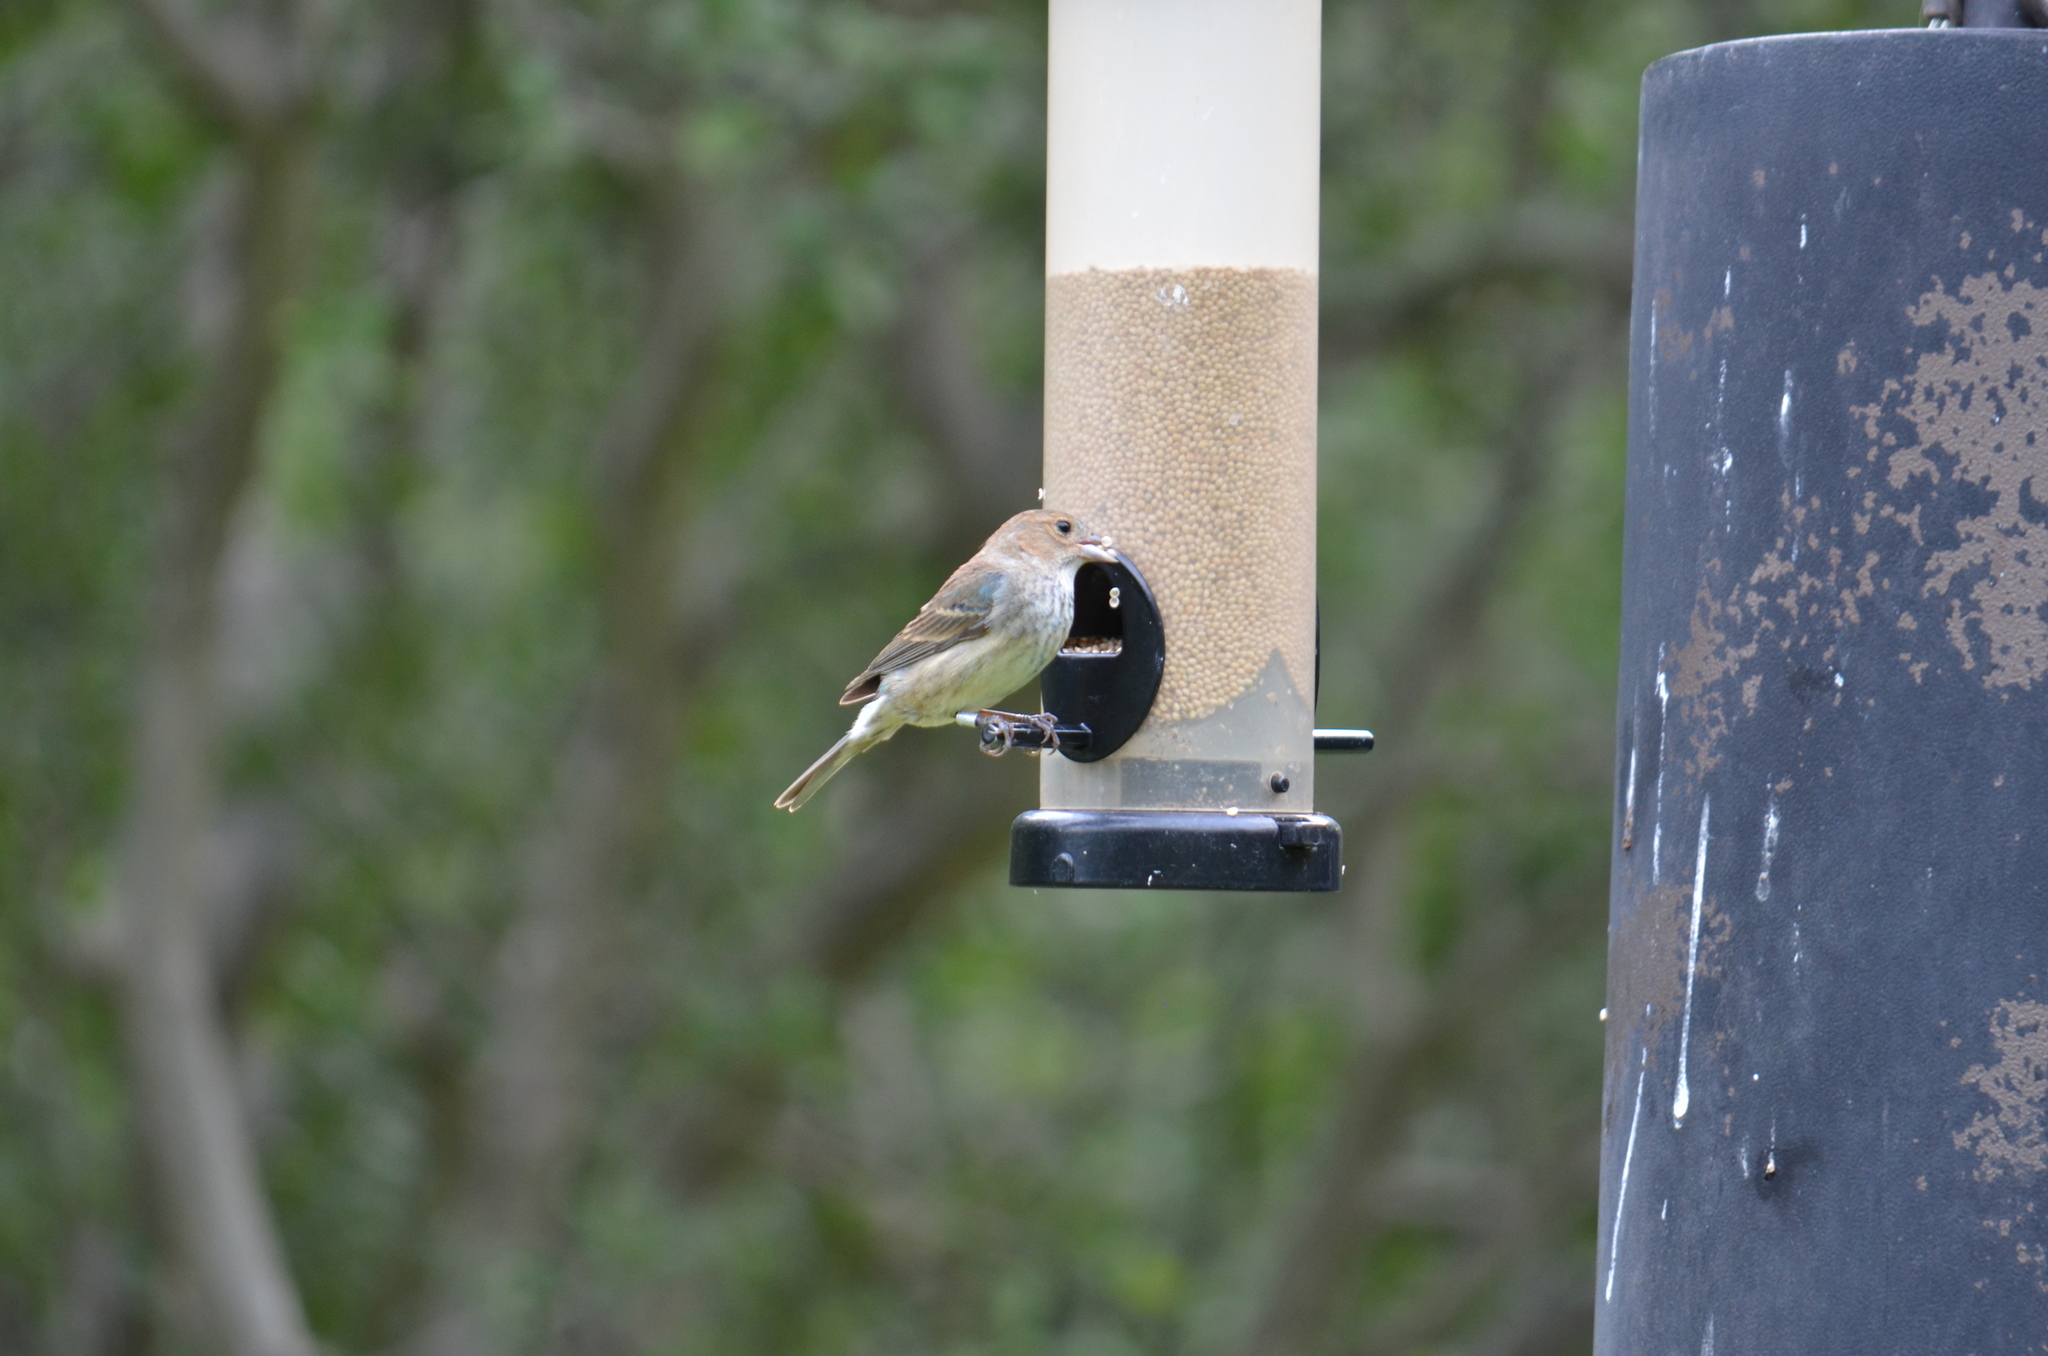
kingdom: Animalia
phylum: Chordata
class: Aves
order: Passeriformes
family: Cardinalidae
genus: Passerina
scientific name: Passerina cyanea
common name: Indigo bunting
